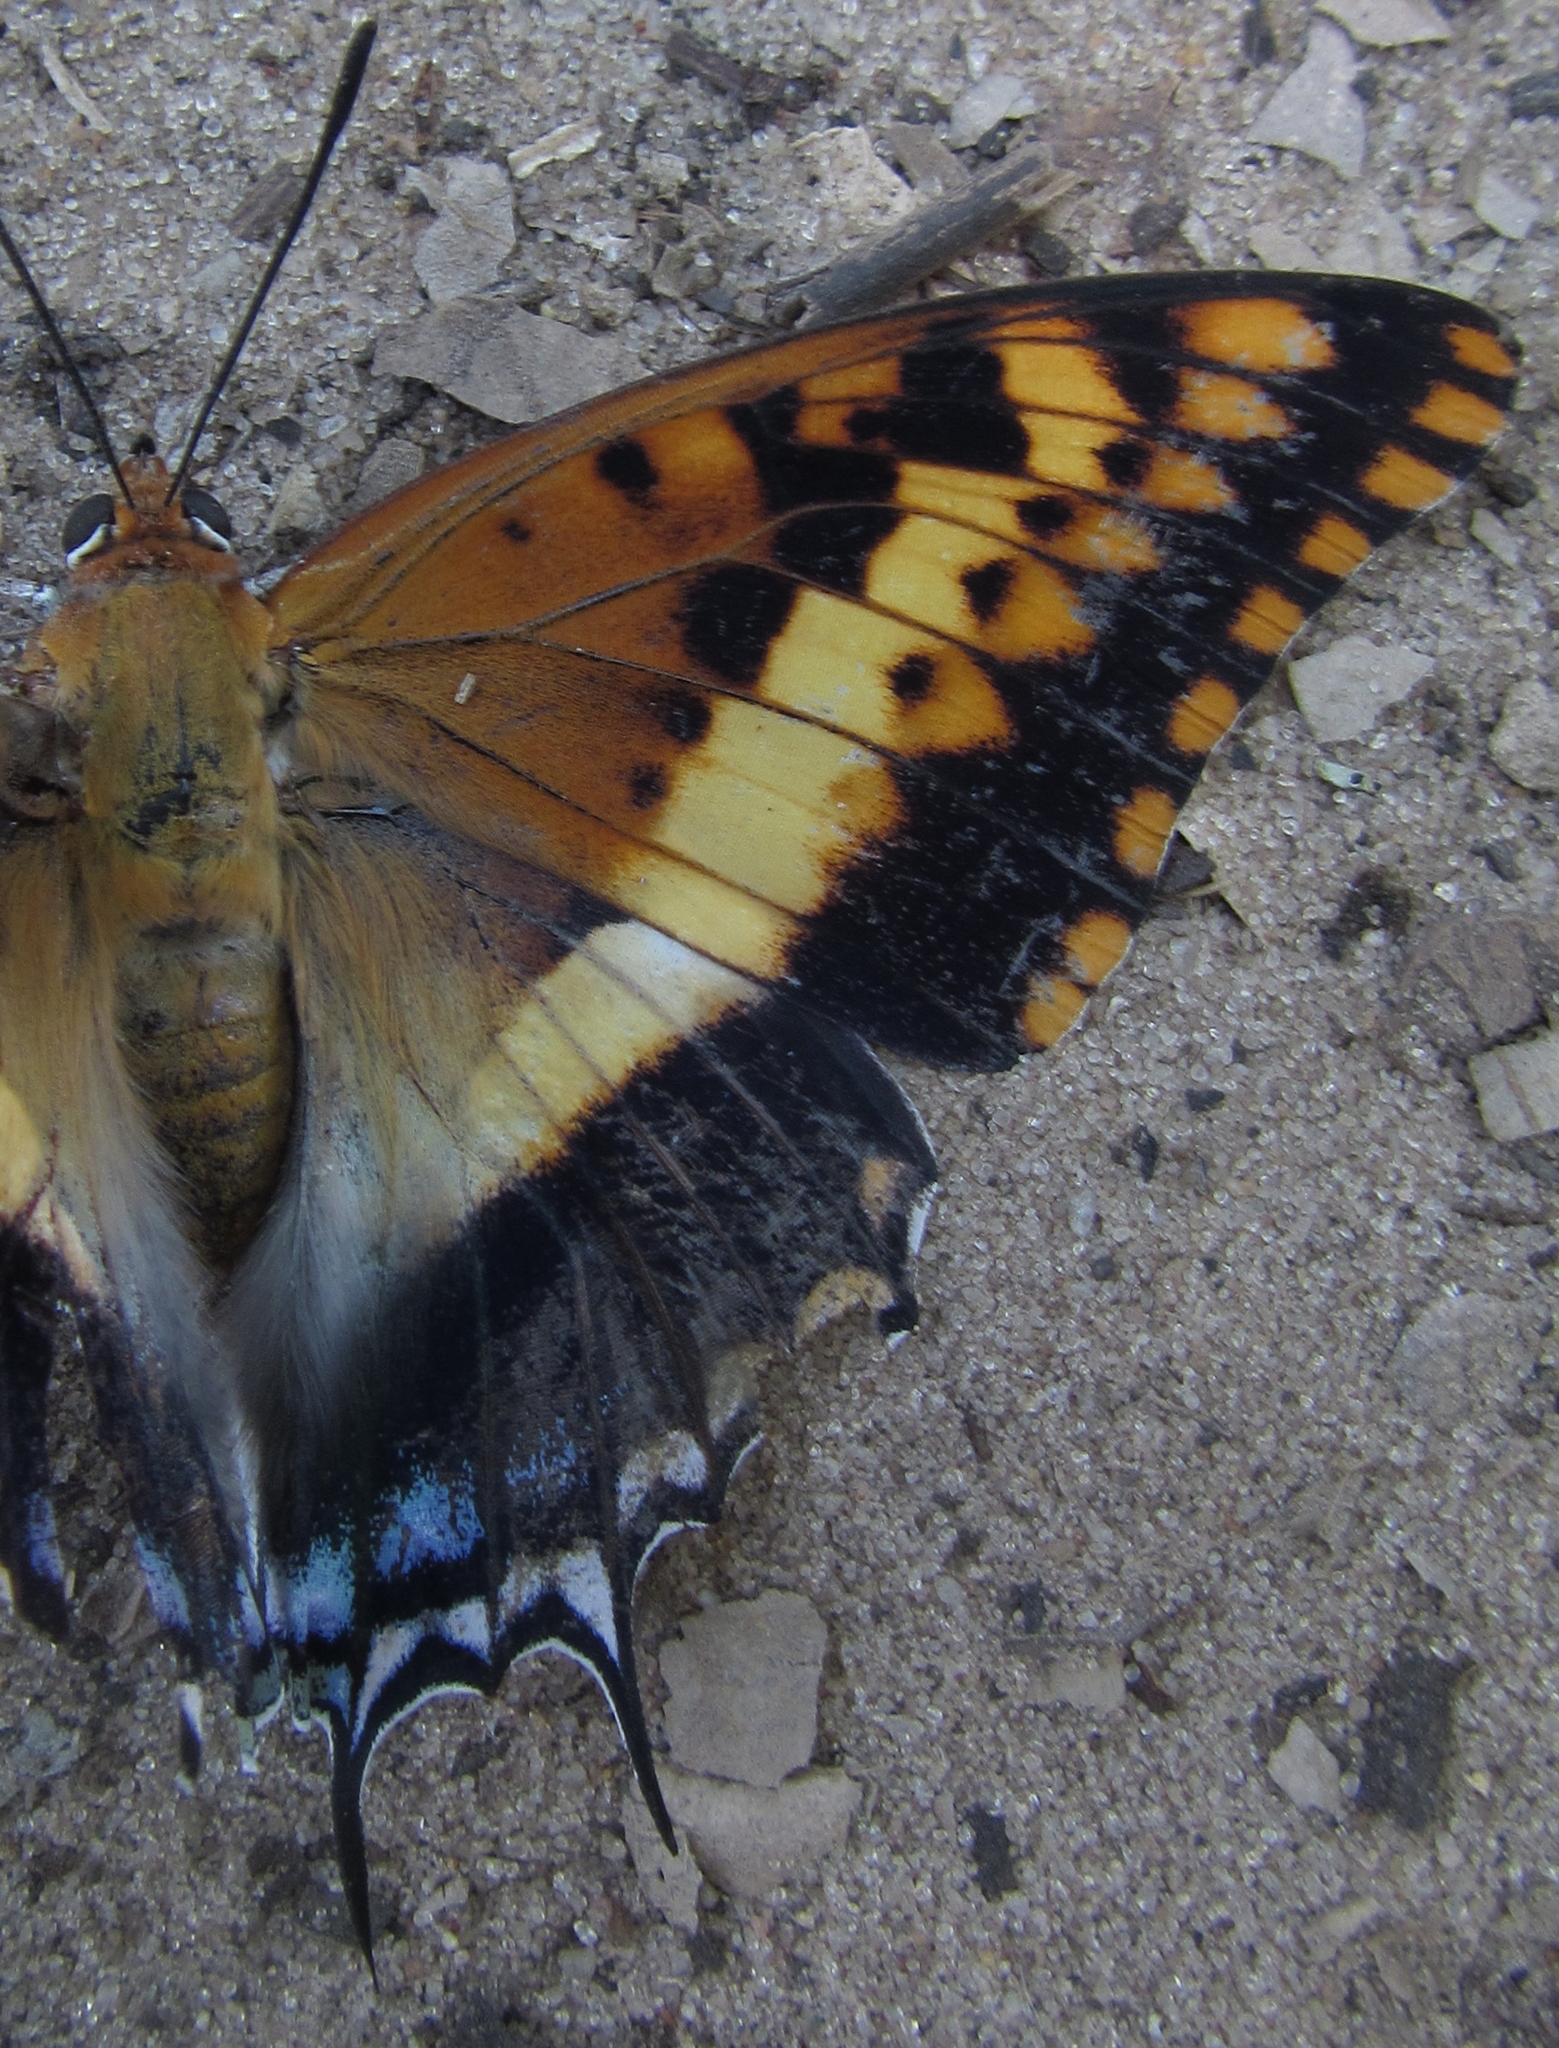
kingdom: Animalia
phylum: Arthropoda
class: Insecta
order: Lepidoptera
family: Nymphalidae
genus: Charaxes
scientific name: Charaxes jasius
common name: Two tailed pasha
